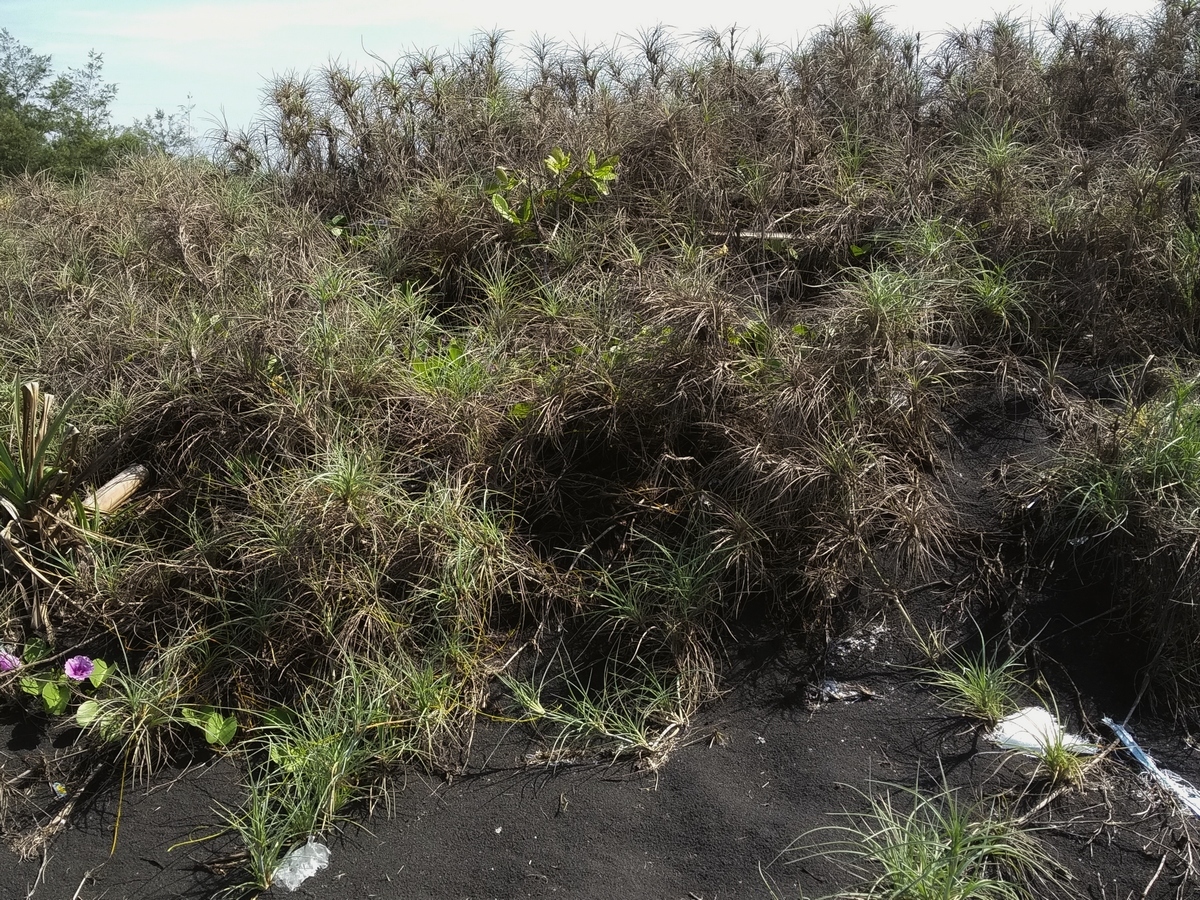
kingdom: Plantae
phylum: Tracheophyta
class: Liliopsida
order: Poales
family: Poaceae
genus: Spinifex
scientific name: Spinifex littoreus
